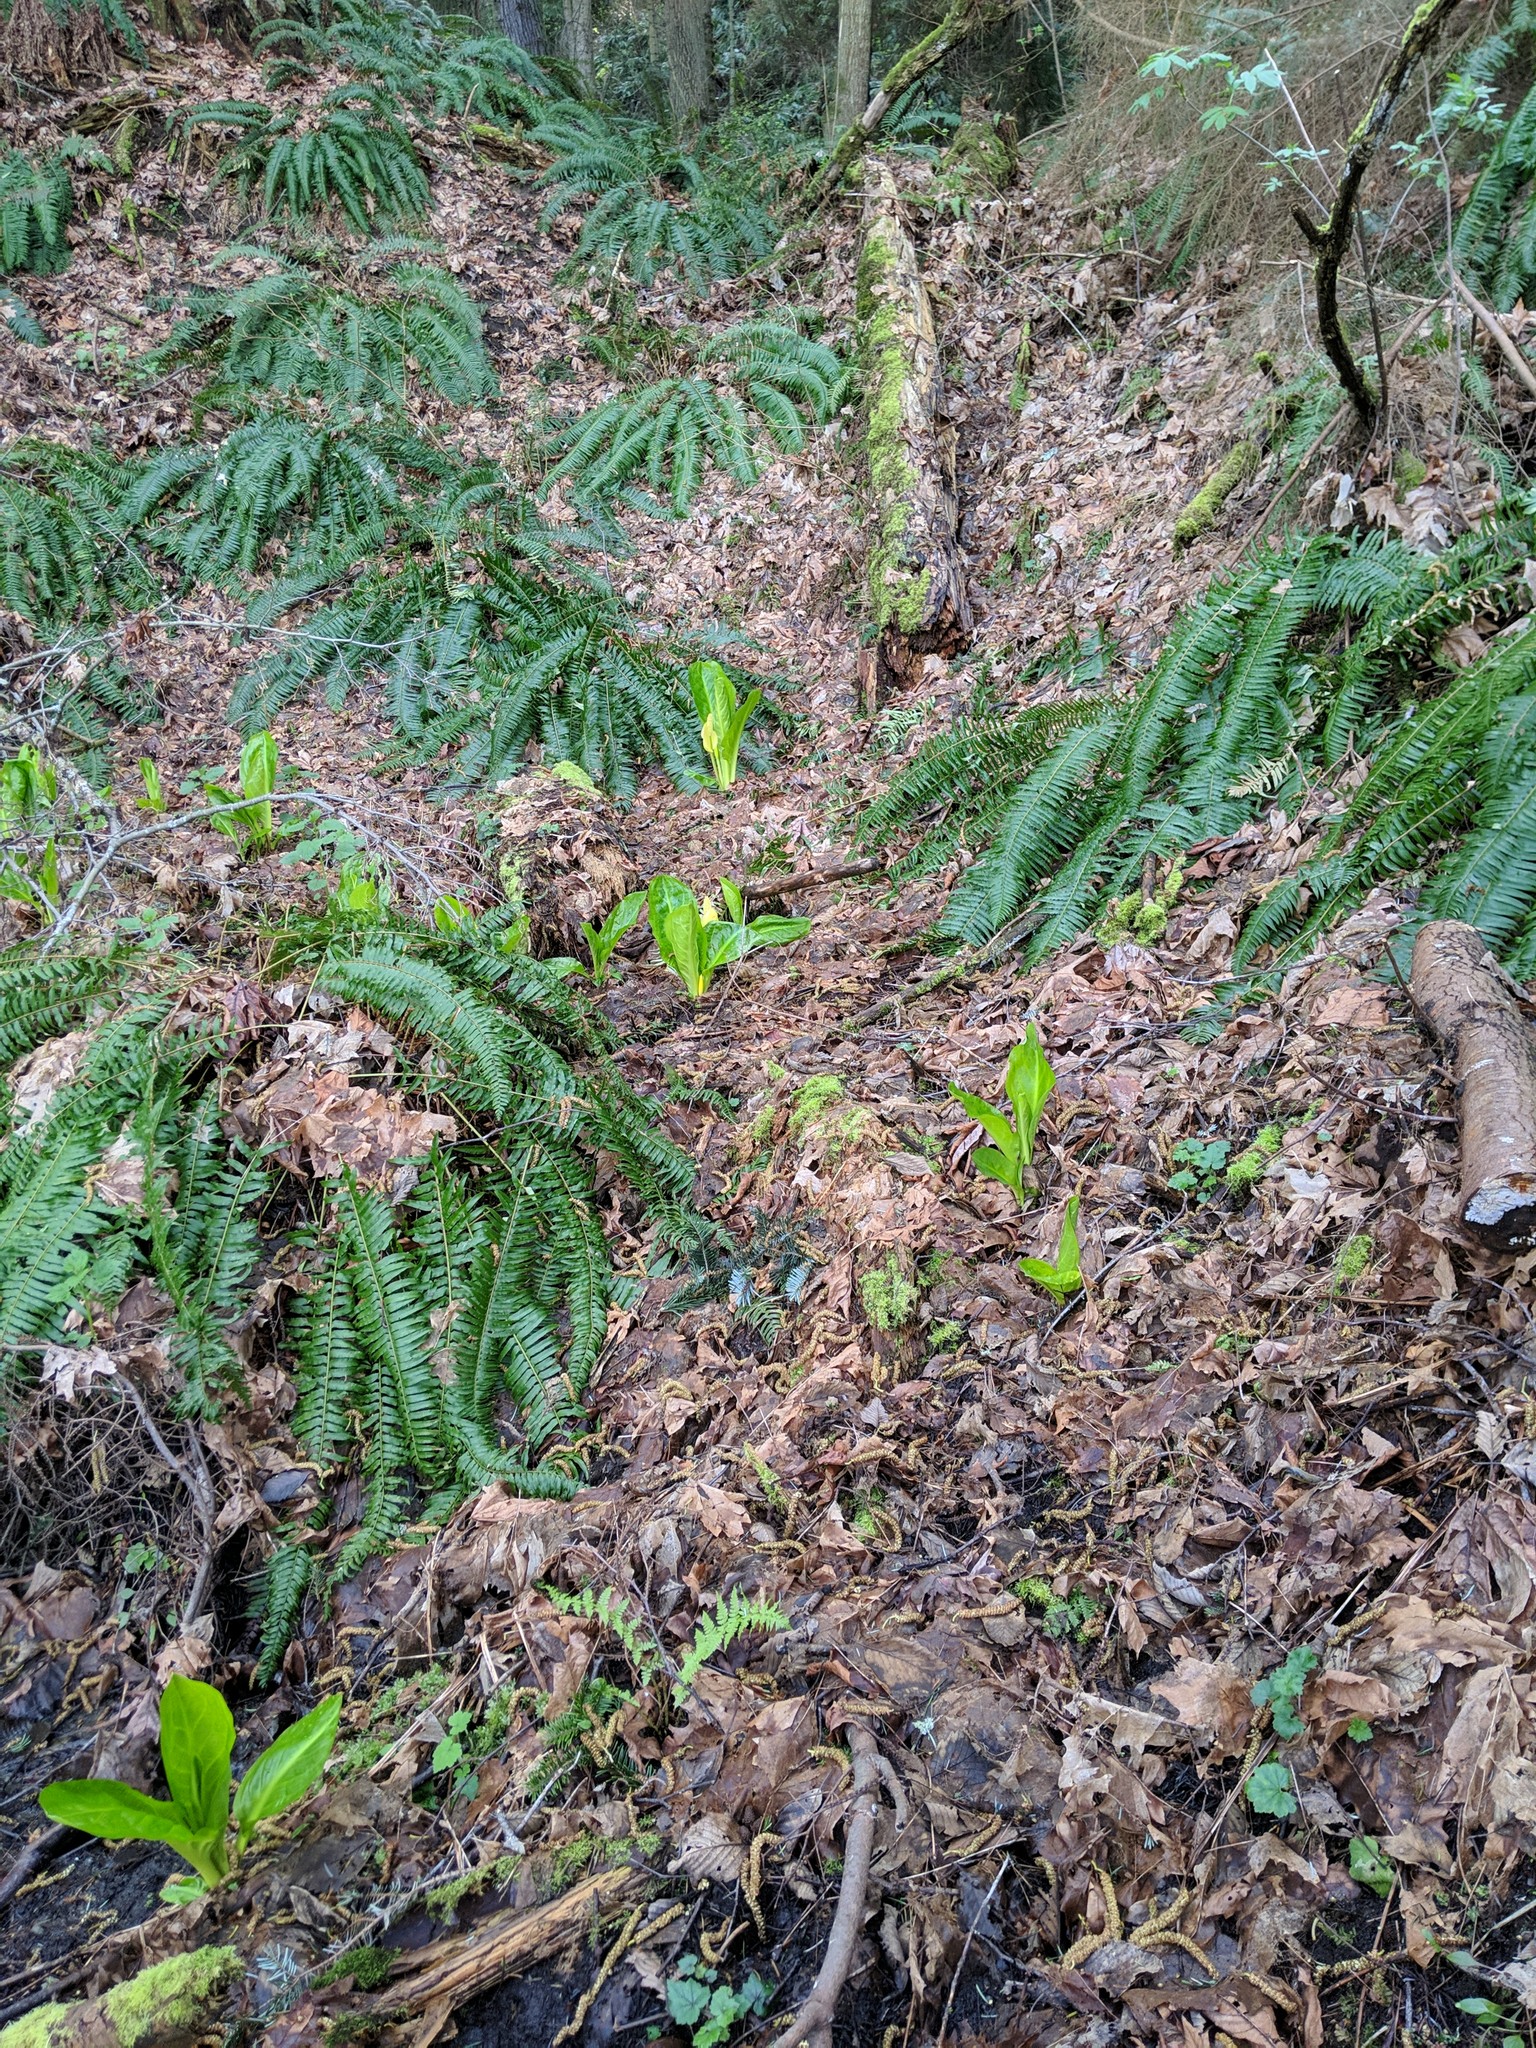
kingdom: Plantae
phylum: Tracheophyta
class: Liliopsida
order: Alismatales
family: Araceae
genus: Lysichiton
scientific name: Lysichiton americanus
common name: American skunk cabbage
